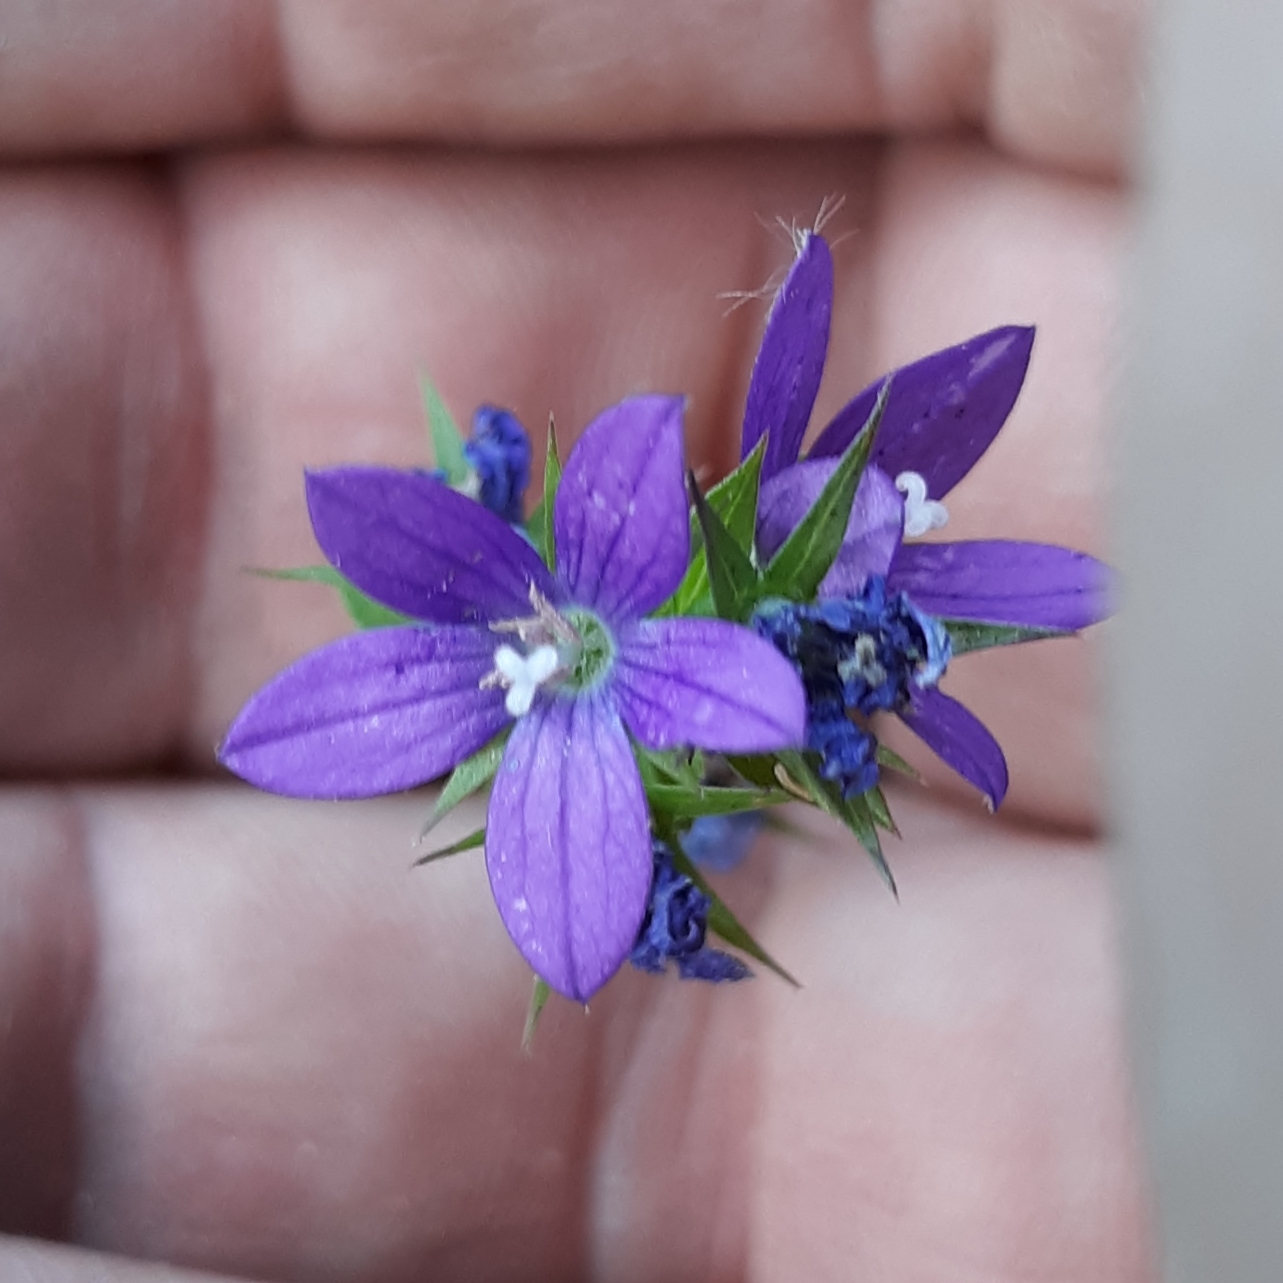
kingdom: Plantae
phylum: Tracheophyta
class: Magnoliopsida
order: Asterales
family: Campanulaceae
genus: Triodanis
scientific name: Triodanis perfoliata
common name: Clasping venus' looking-glass
